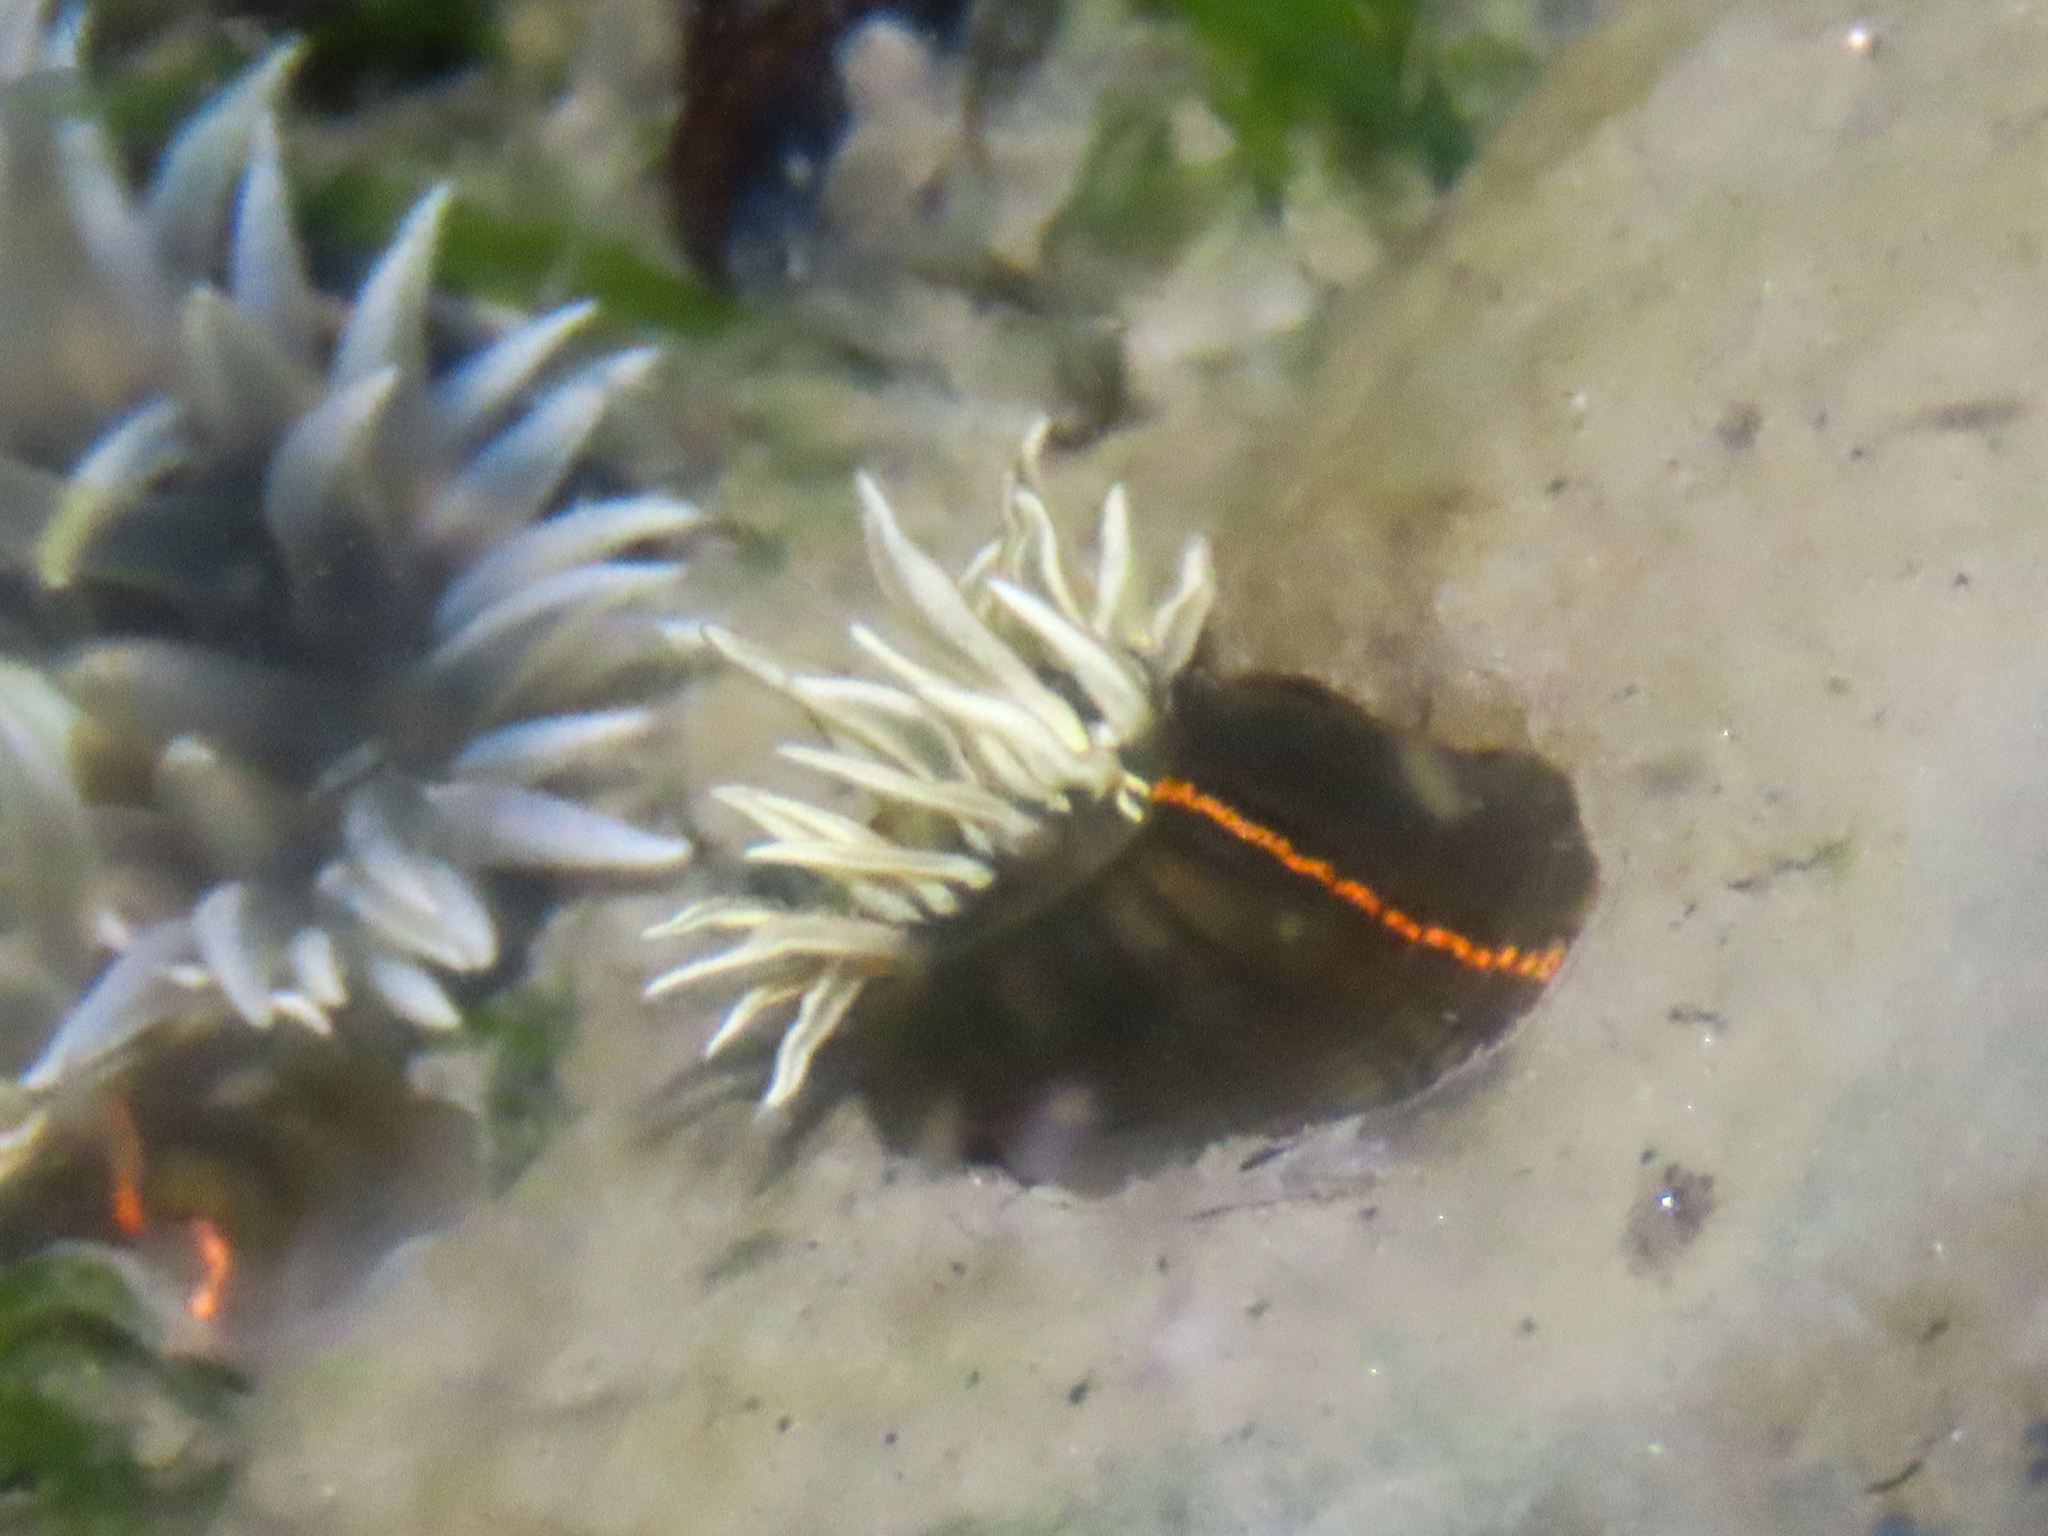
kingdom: Animalia
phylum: Cnidaria
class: Anthozoa
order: Actiniaria
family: Diadumenidae
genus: Diadumene
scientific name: Diadumene lineata
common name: Orange-striped anemone
